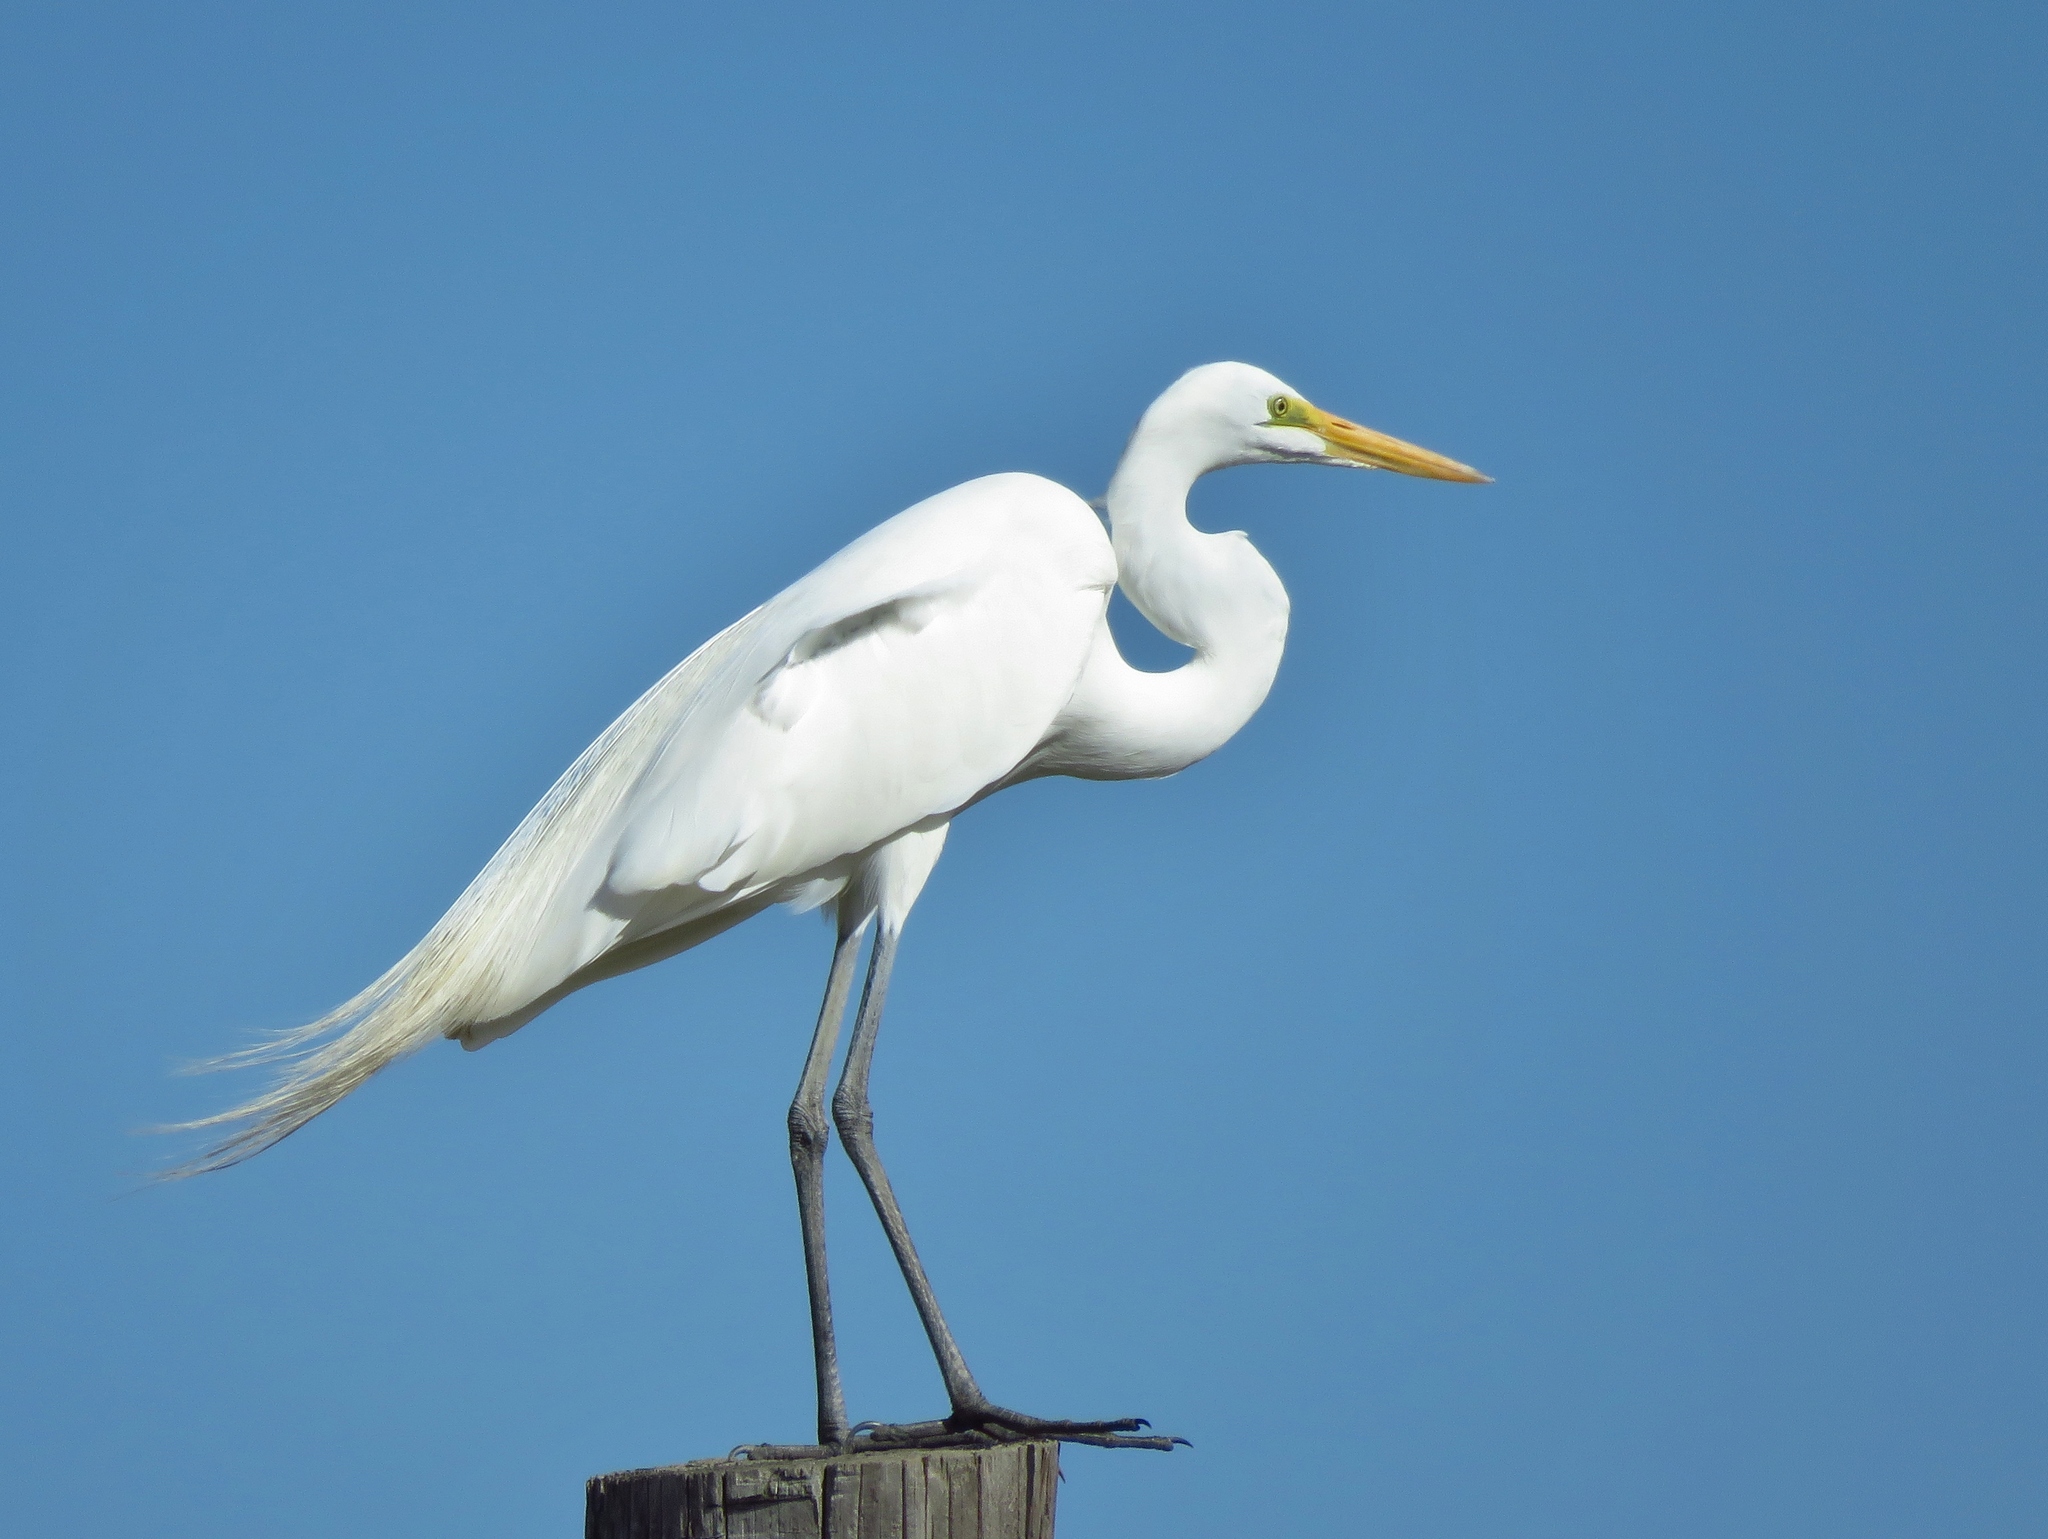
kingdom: Animalia
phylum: Chordata
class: Aves
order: Pelecaniformes
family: Ardeidae
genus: Ardea
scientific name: Ardea alba
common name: Great egret
